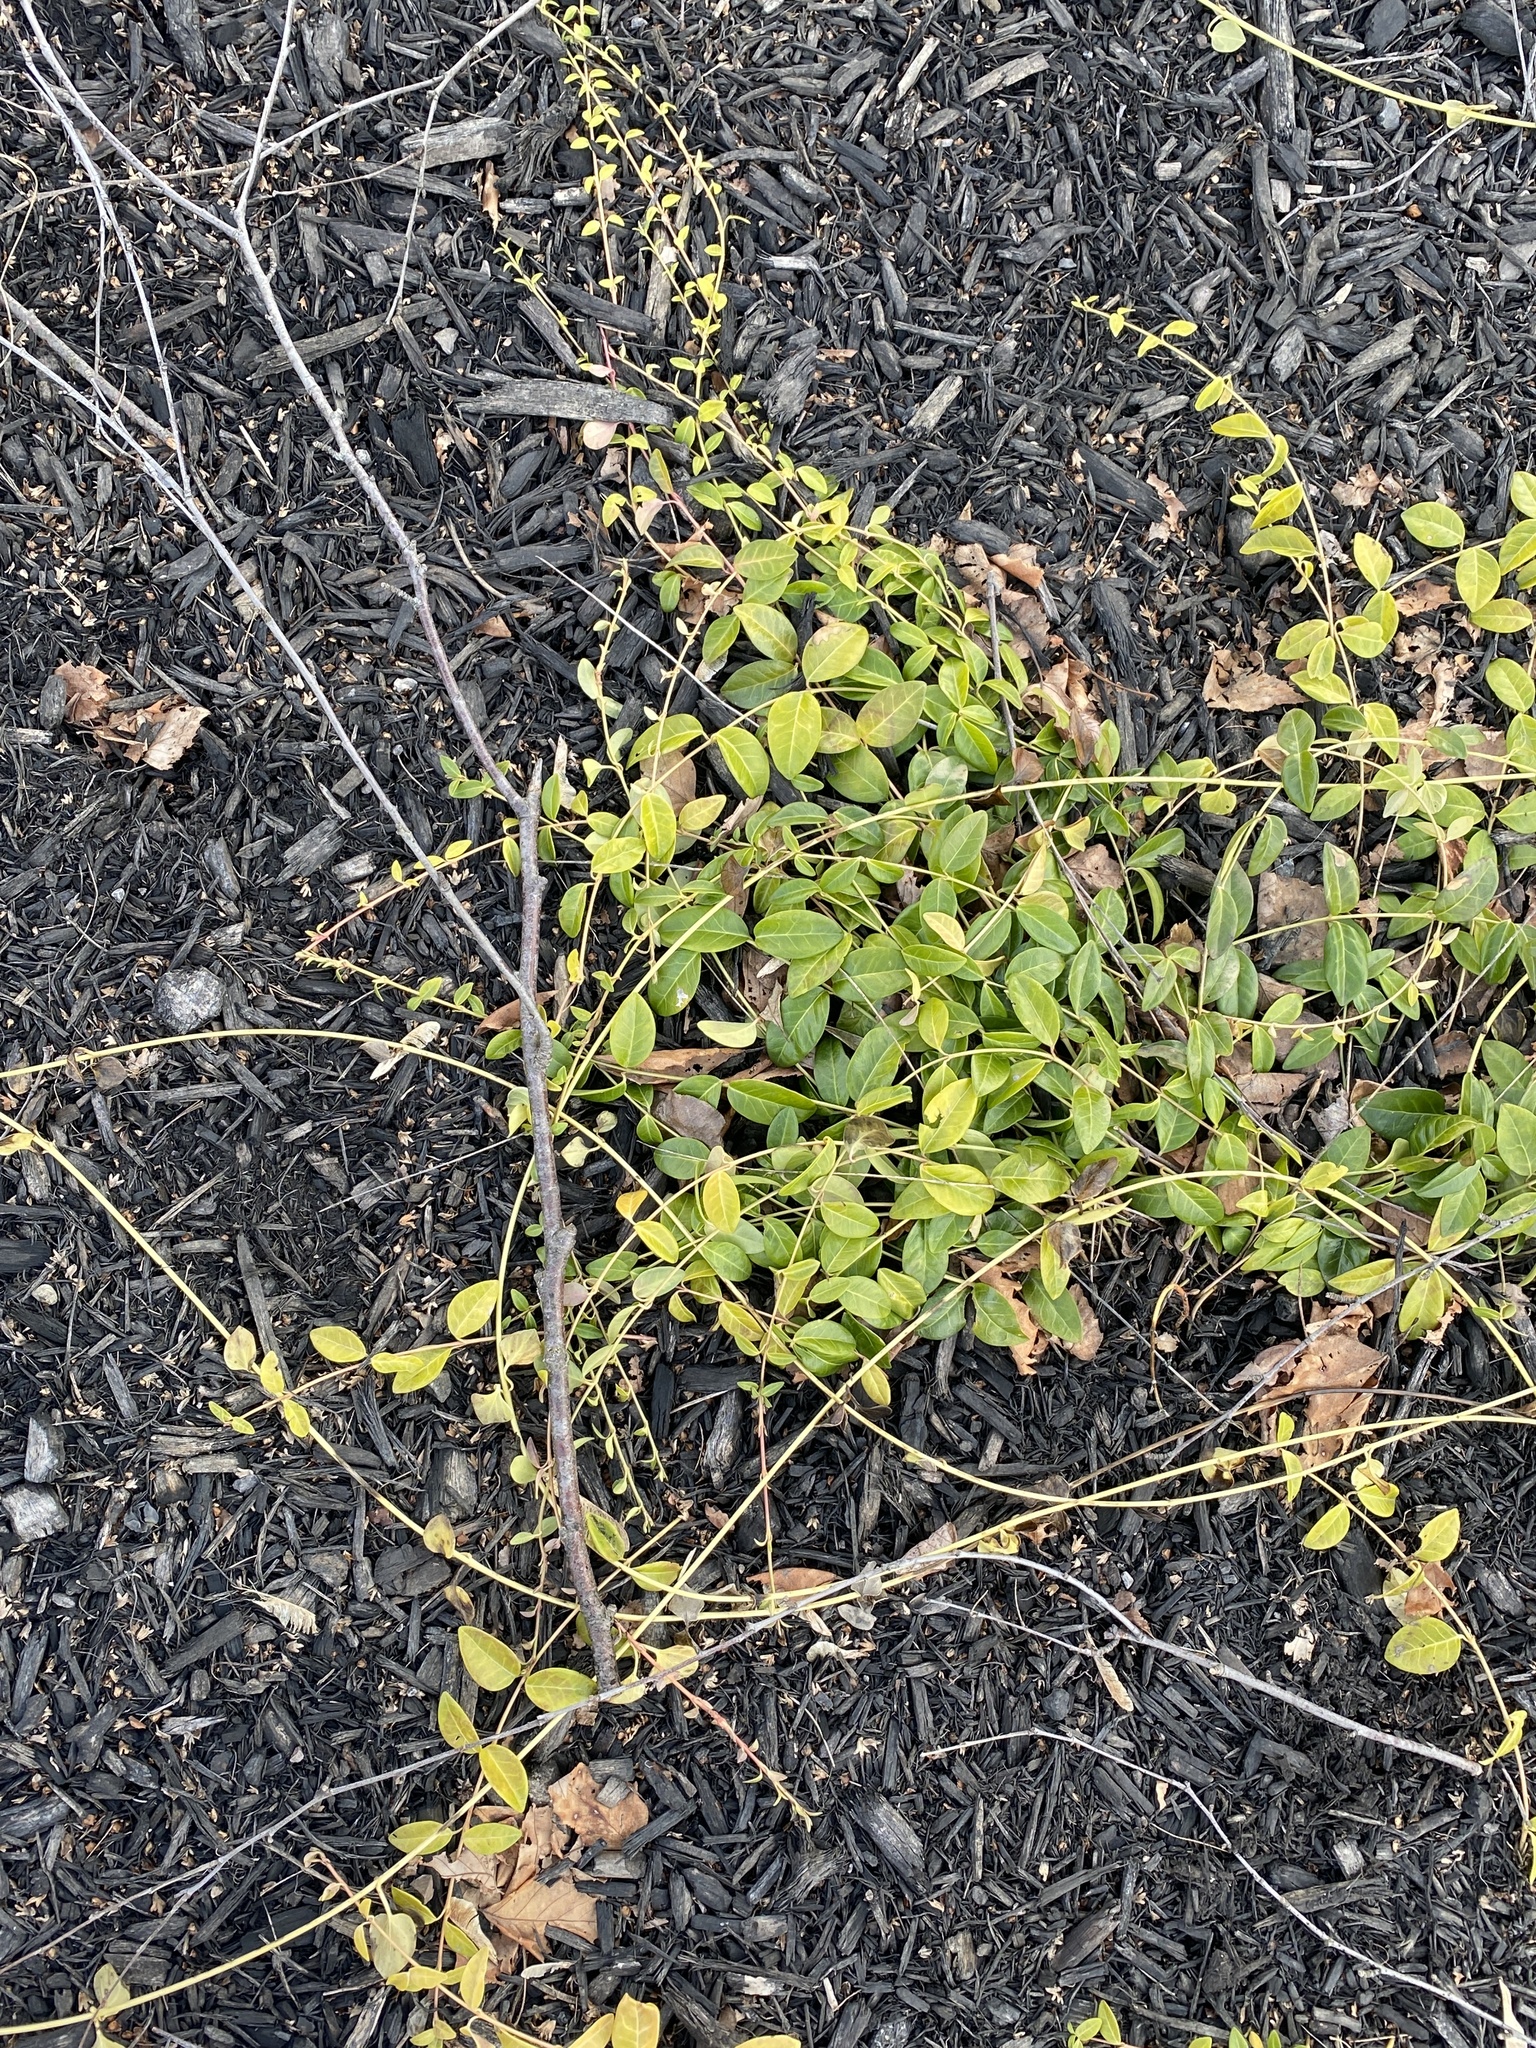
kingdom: Plantae
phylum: Tracheophyta
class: Magnoliopsida
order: Gentianales
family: Apocynaceae
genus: Vinca
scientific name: Vinca minor
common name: Lesser periwinkle
